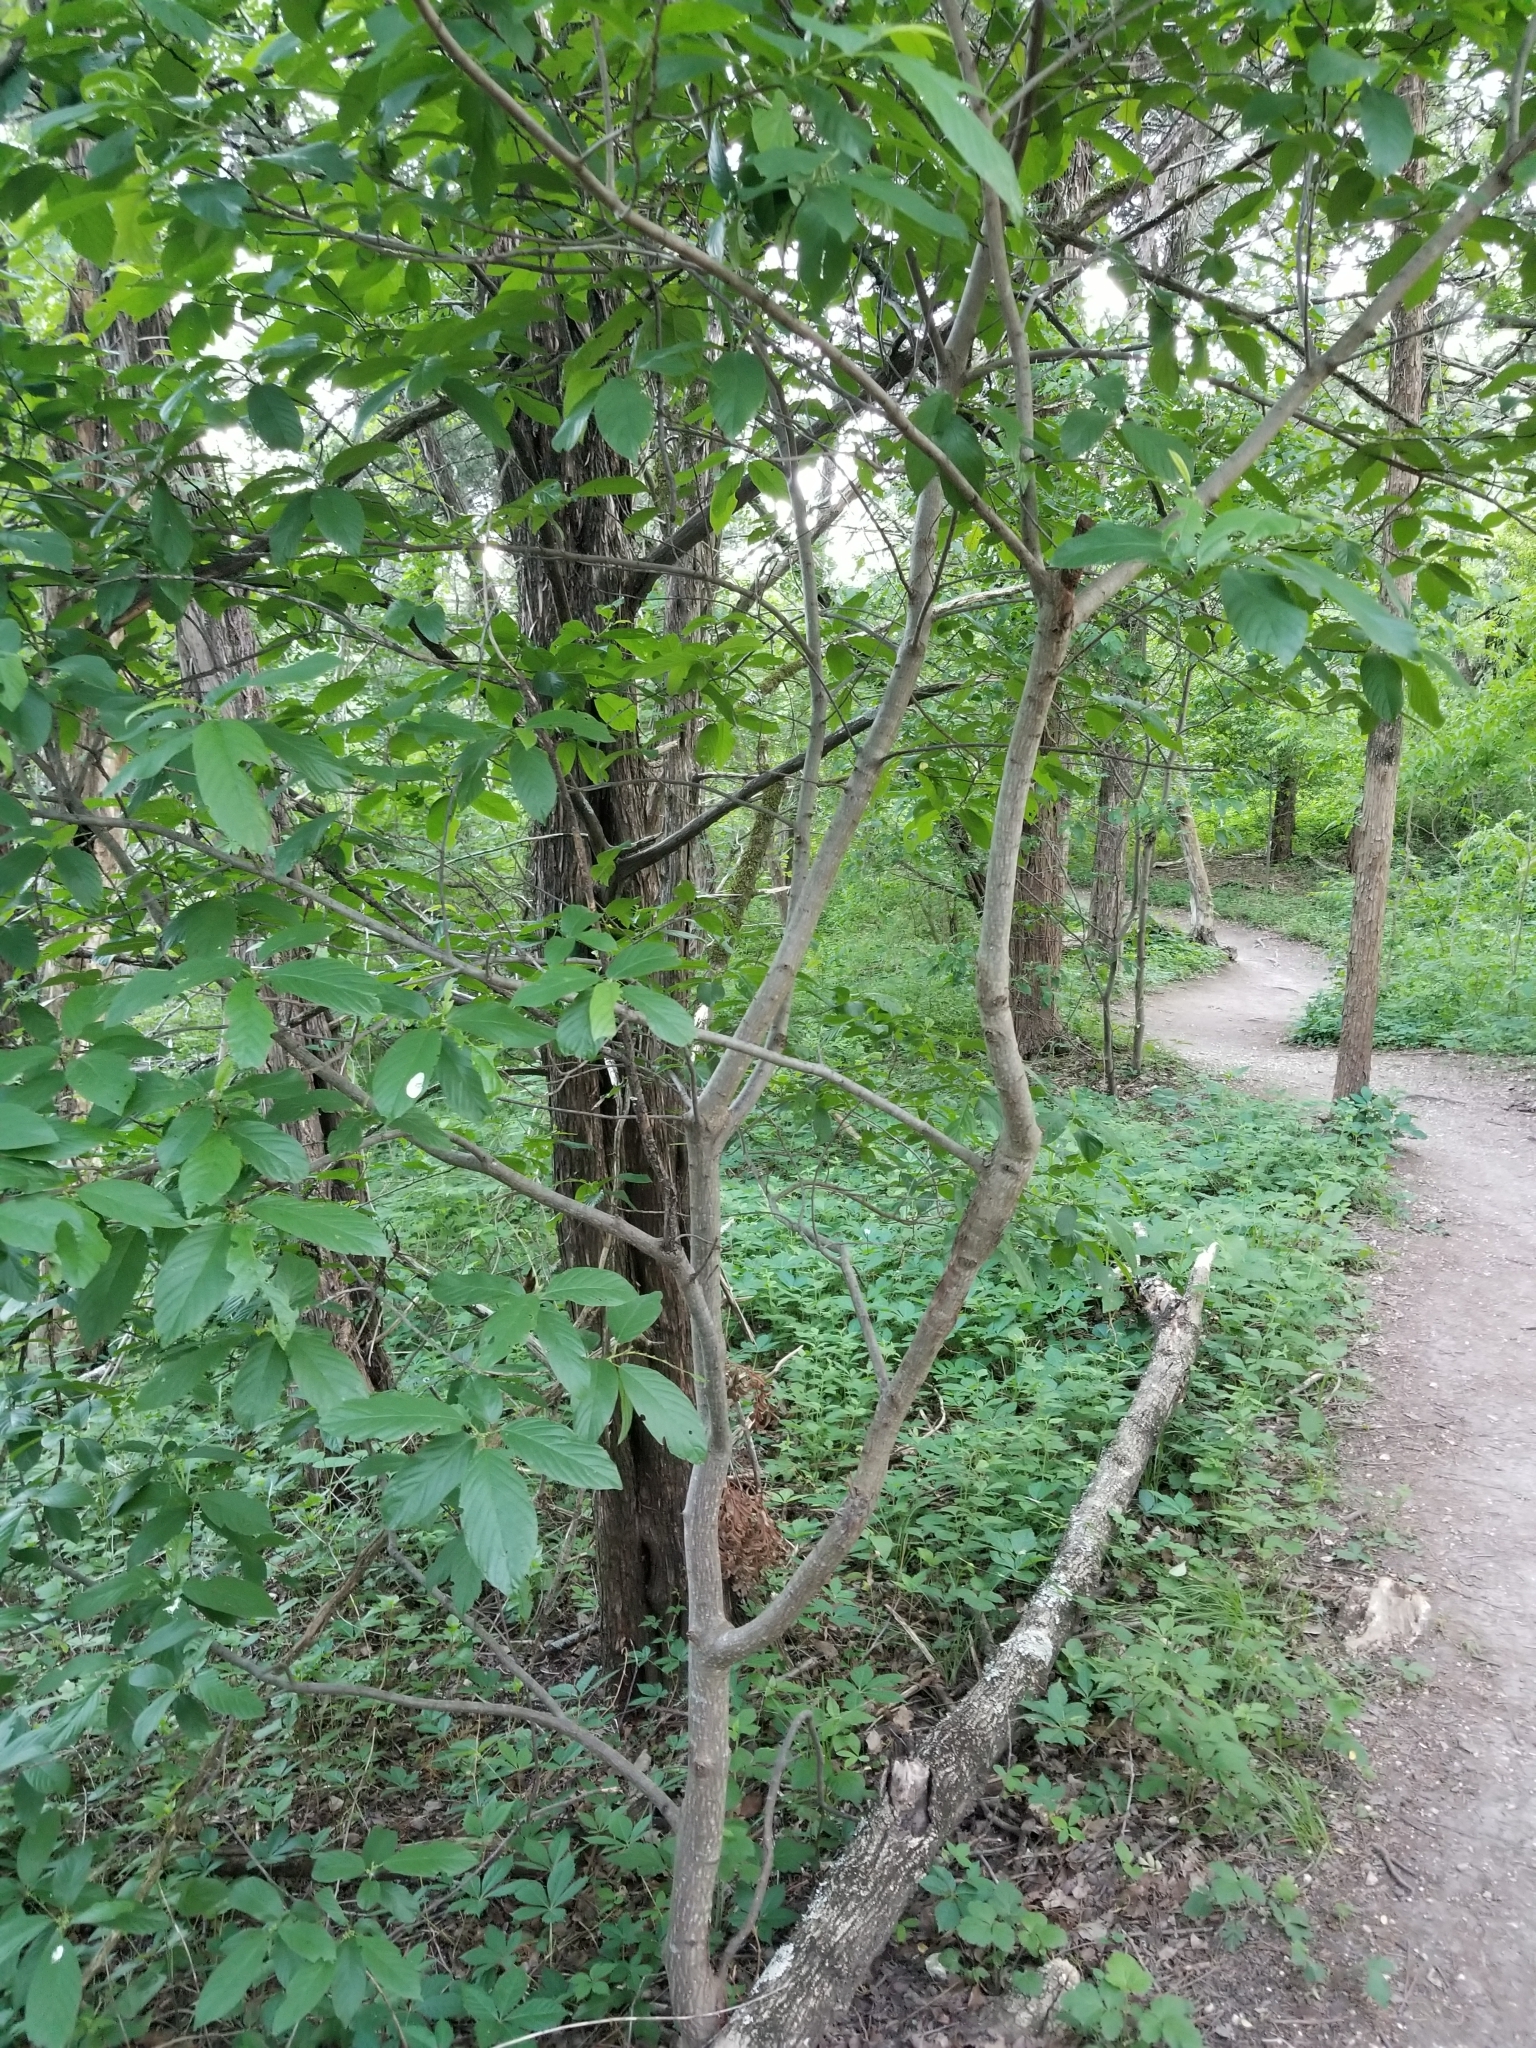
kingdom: Plantae
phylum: Tracheophyta
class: Magnoliopsida
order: Rosales
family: Rhamnaceae
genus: Frangula
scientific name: Frangula caroliniana
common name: Carolina buckthorn
